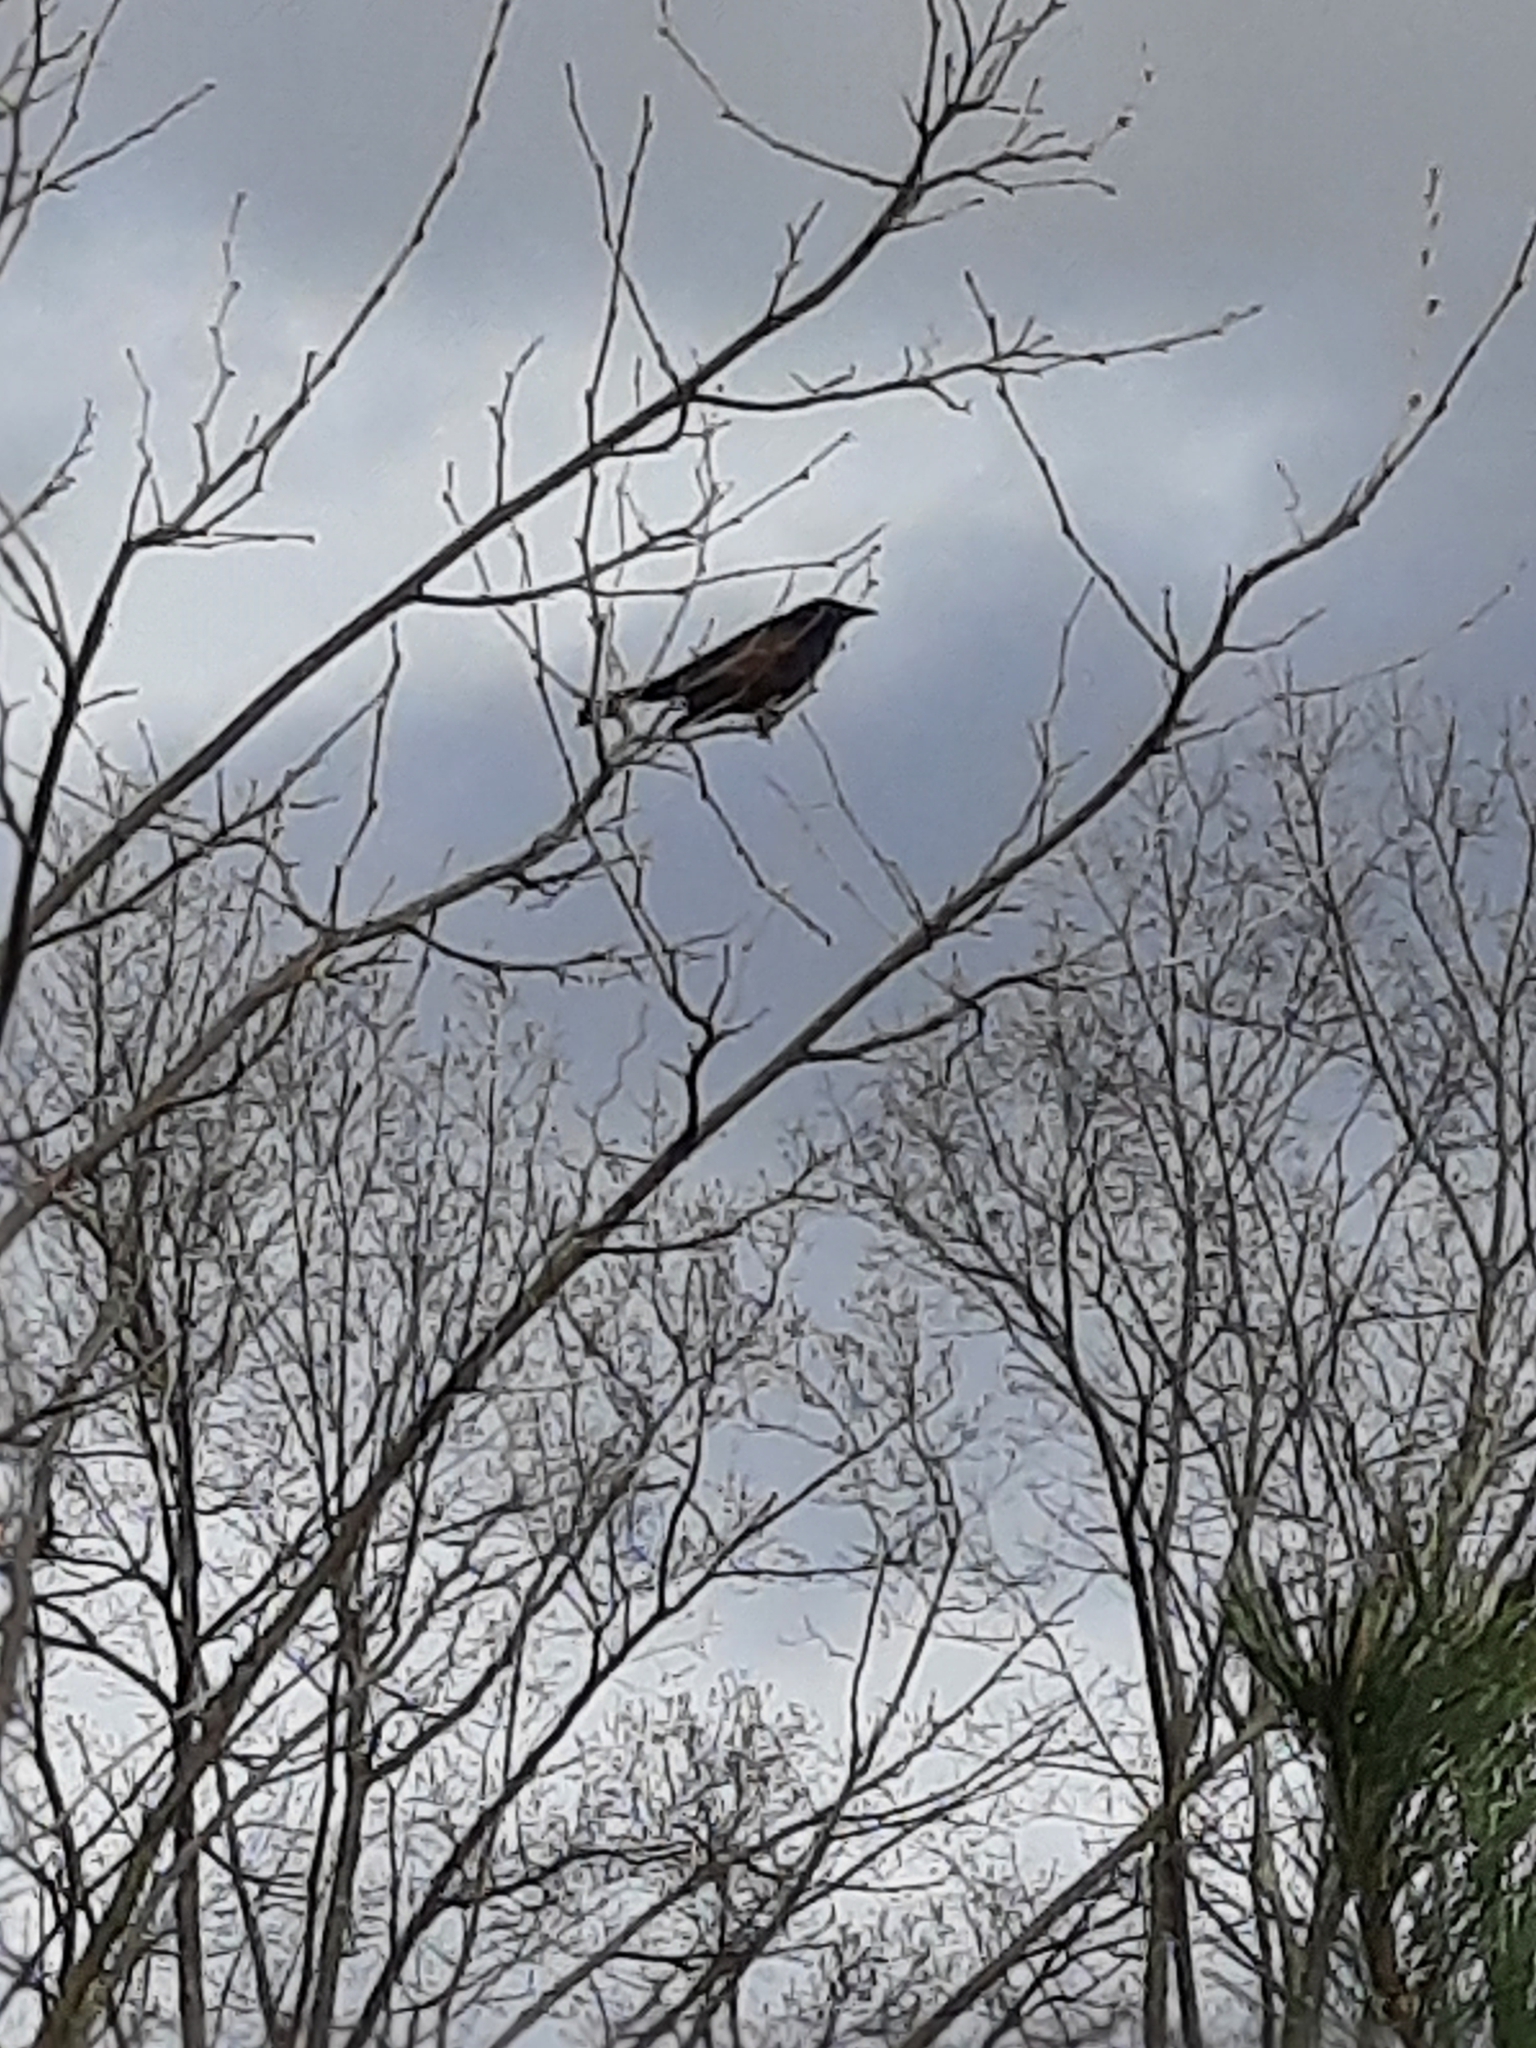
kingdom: Animalia
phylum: Chordata
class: Aves
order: Passeriformes
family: Icteridae
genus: Quiscalus
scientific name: Quiscalus quiscula
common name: Common grackle
